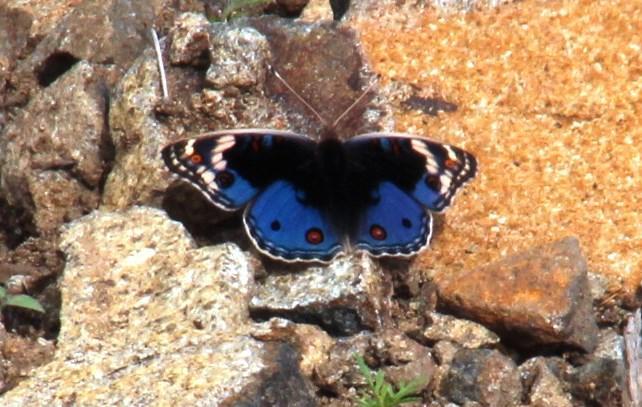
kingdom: Animalia
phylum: Arthropoda
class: Insecta
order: Lepidoptera
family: Nymphalidae
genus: Junonia
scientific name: Junonia orithya
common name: Blue pansy
